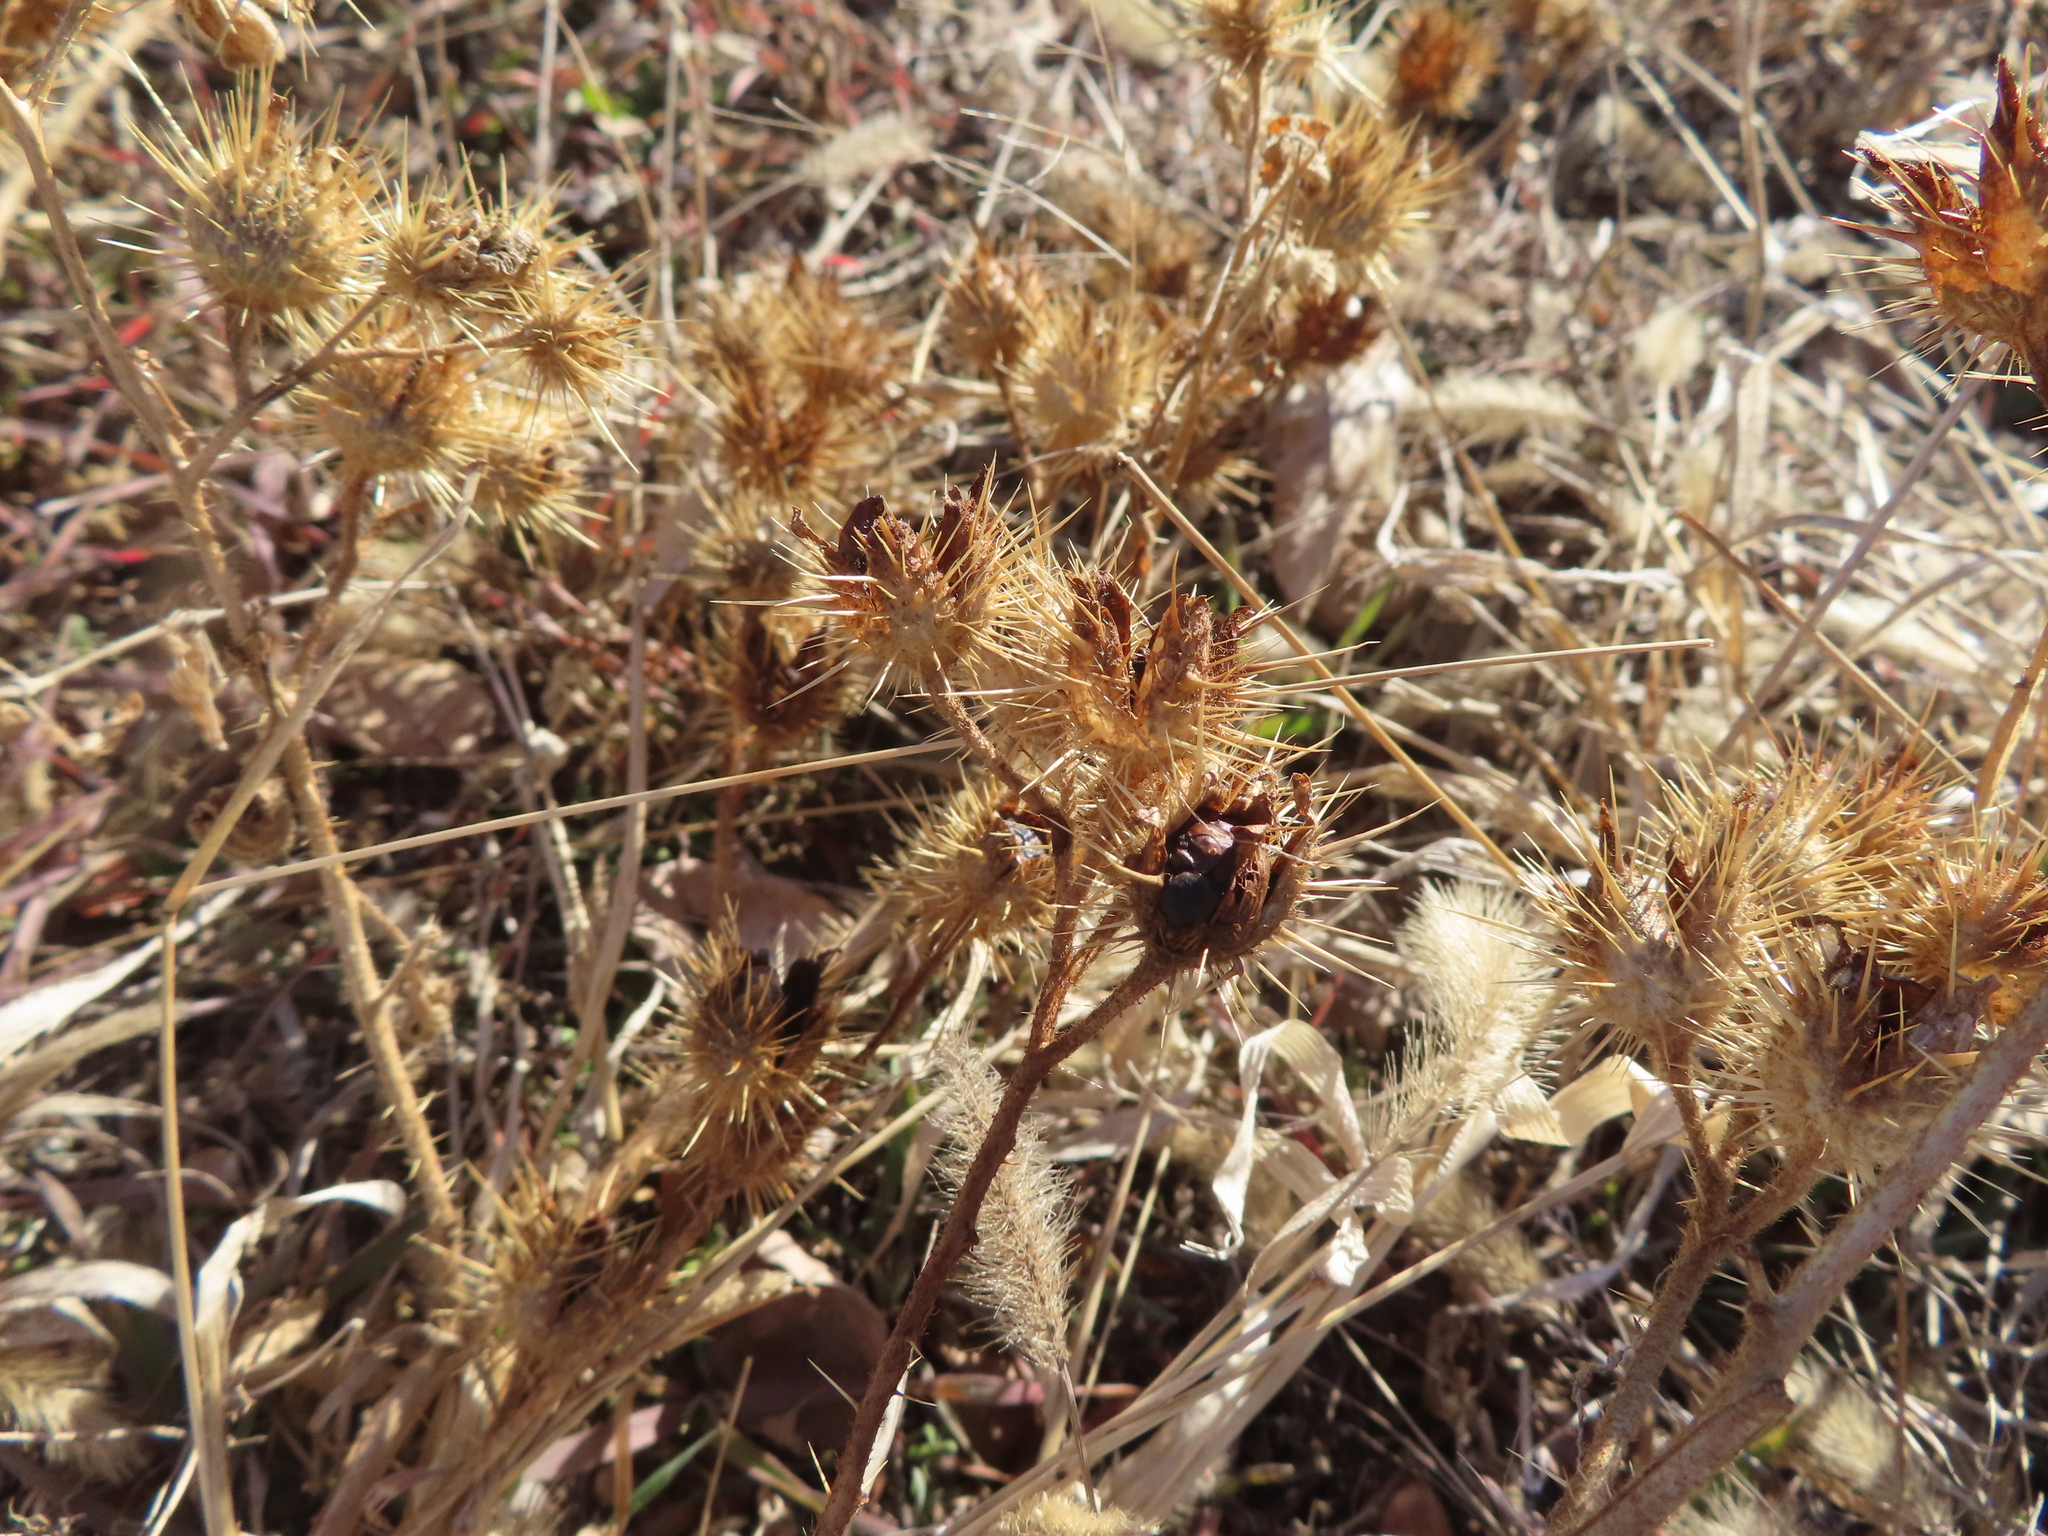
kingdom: Plantae
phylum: Tracheophyta
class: Magnoliopsida
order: Solanales
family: Solanaceae
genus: Solanum
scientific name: Solanum angustifolium
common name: Buffalobur nightshade
